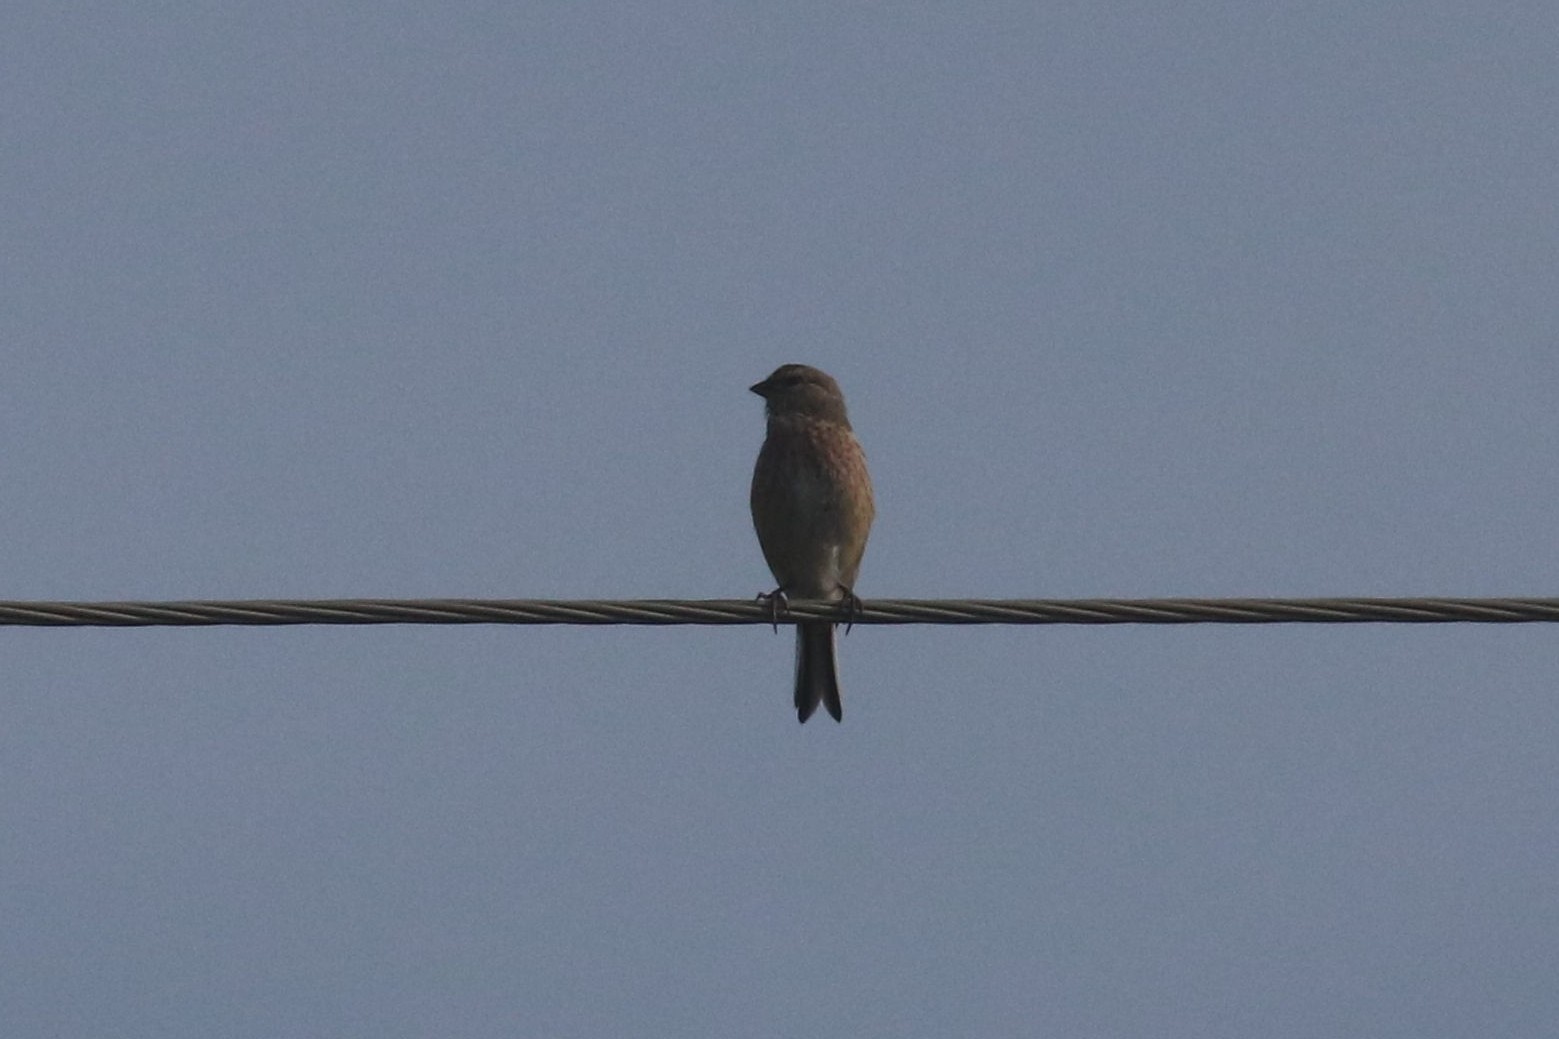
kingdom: Animalia
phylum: Chordata
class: Aves
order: Passeriformes
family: Fringillidae
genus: Linaria
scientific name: Linaria cannabina
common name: Common linnet
